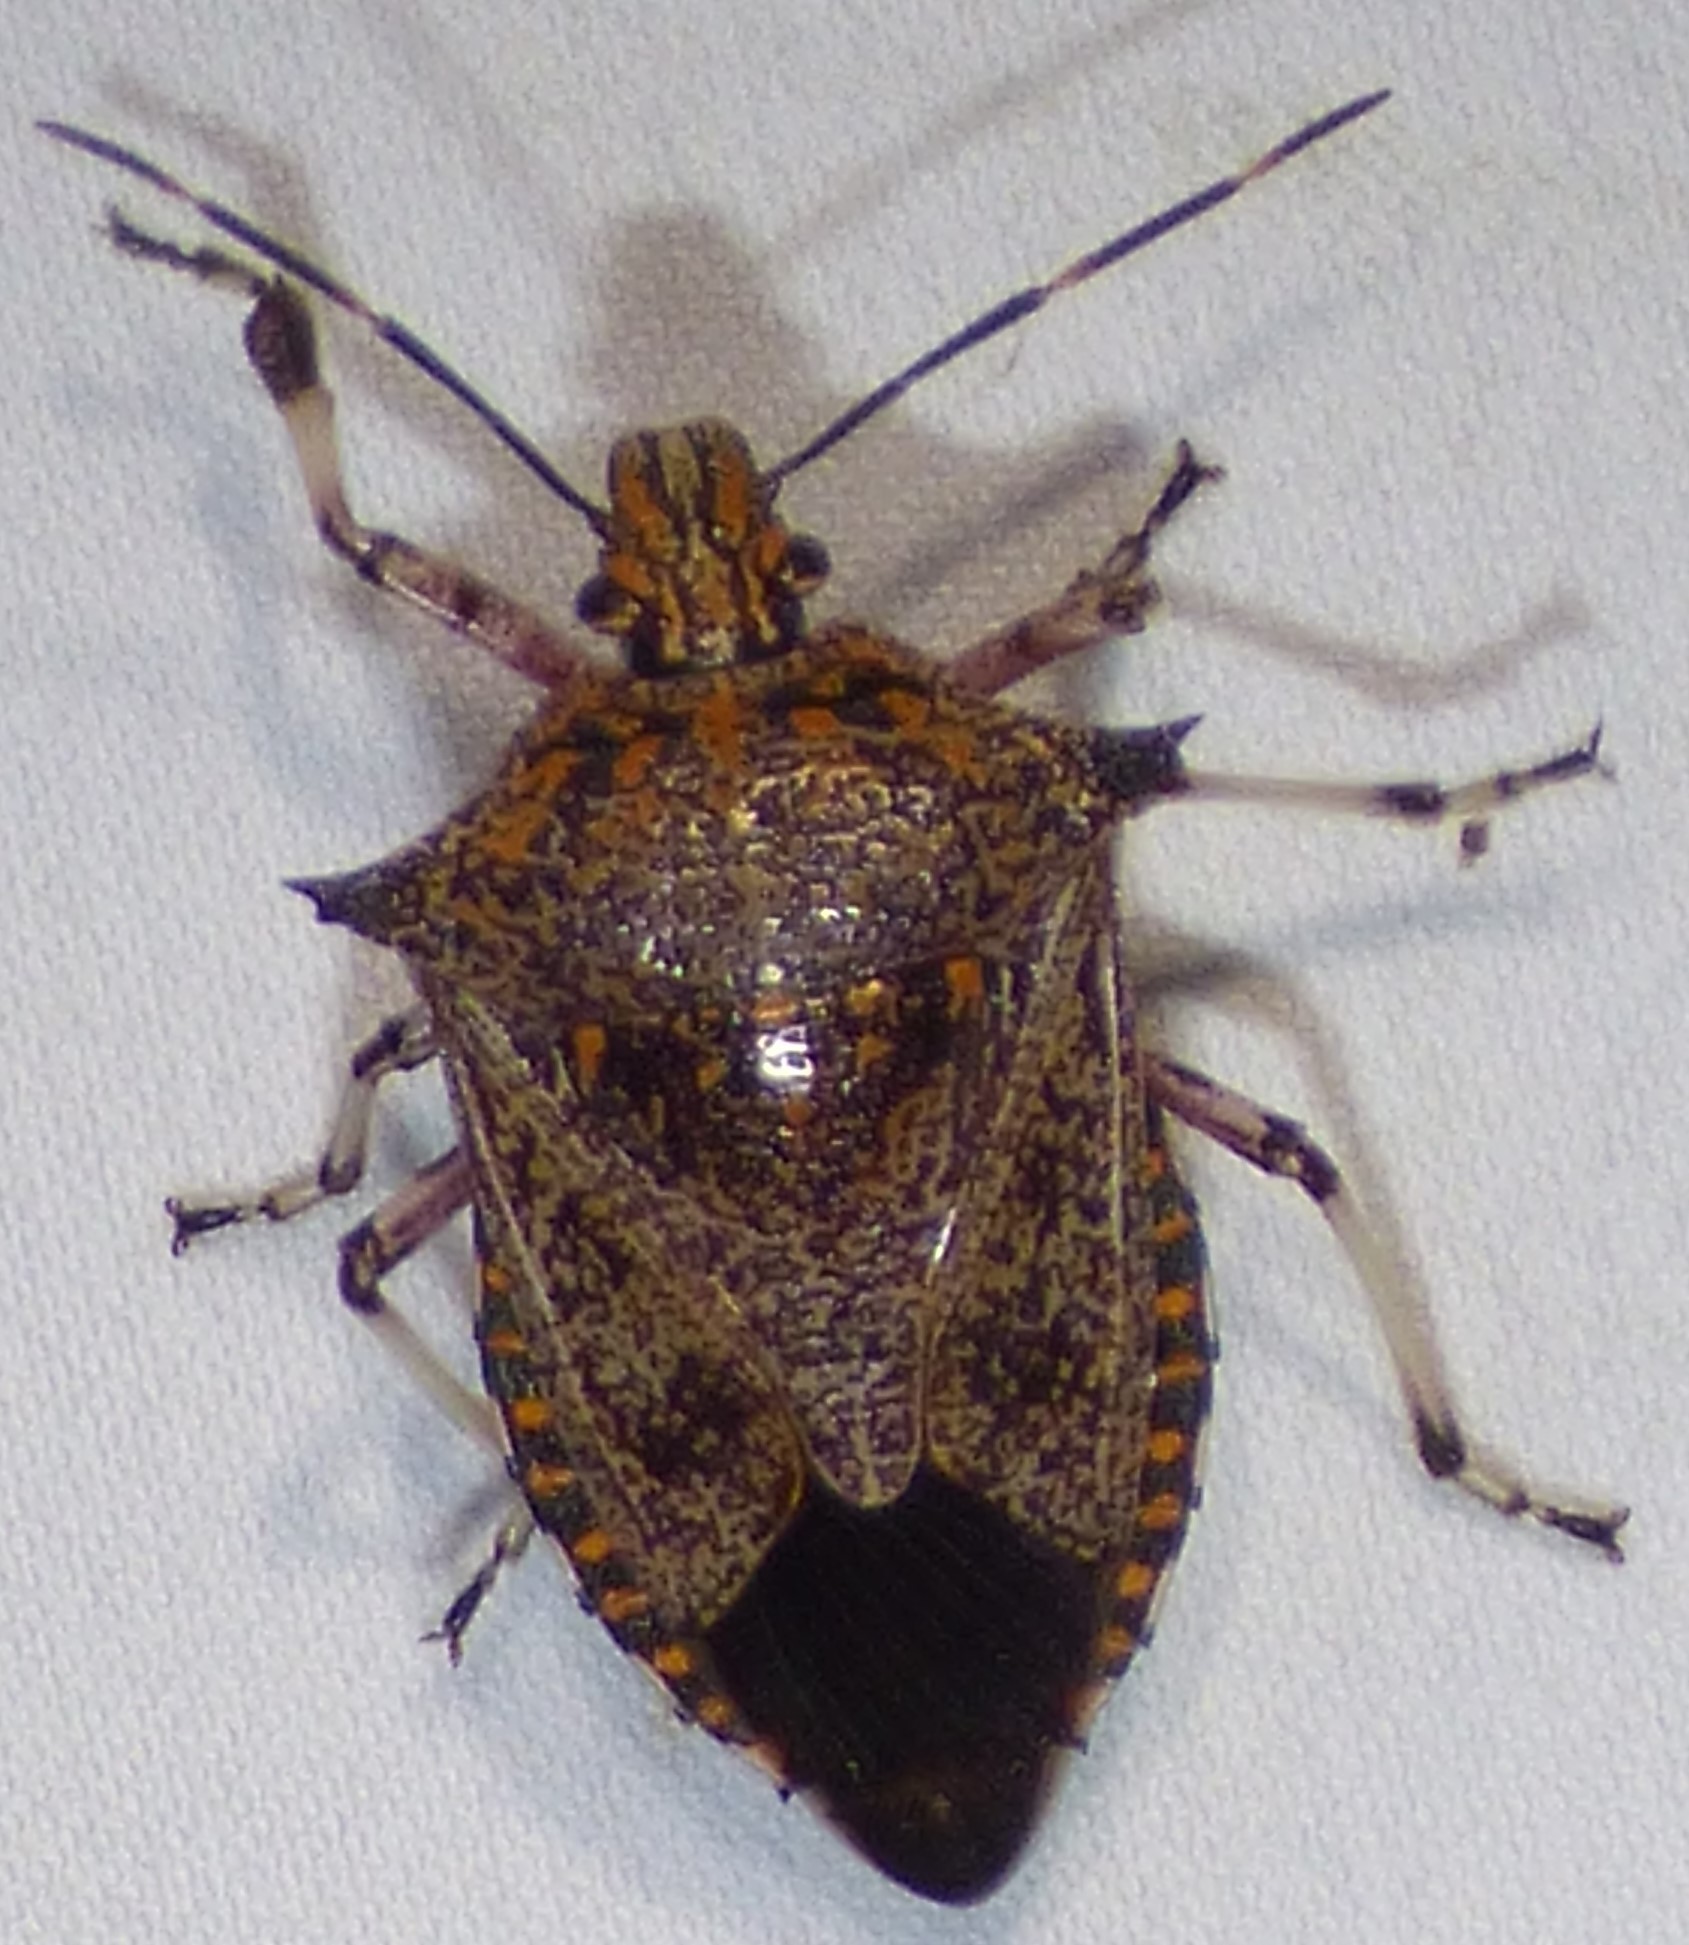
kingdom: Animalia
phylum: Arthropoda
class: Insecta
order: Hemiptera
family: Pentatomidae
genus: Alcaeorrhynchus
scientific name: Alcaeorrhynchus grandis
